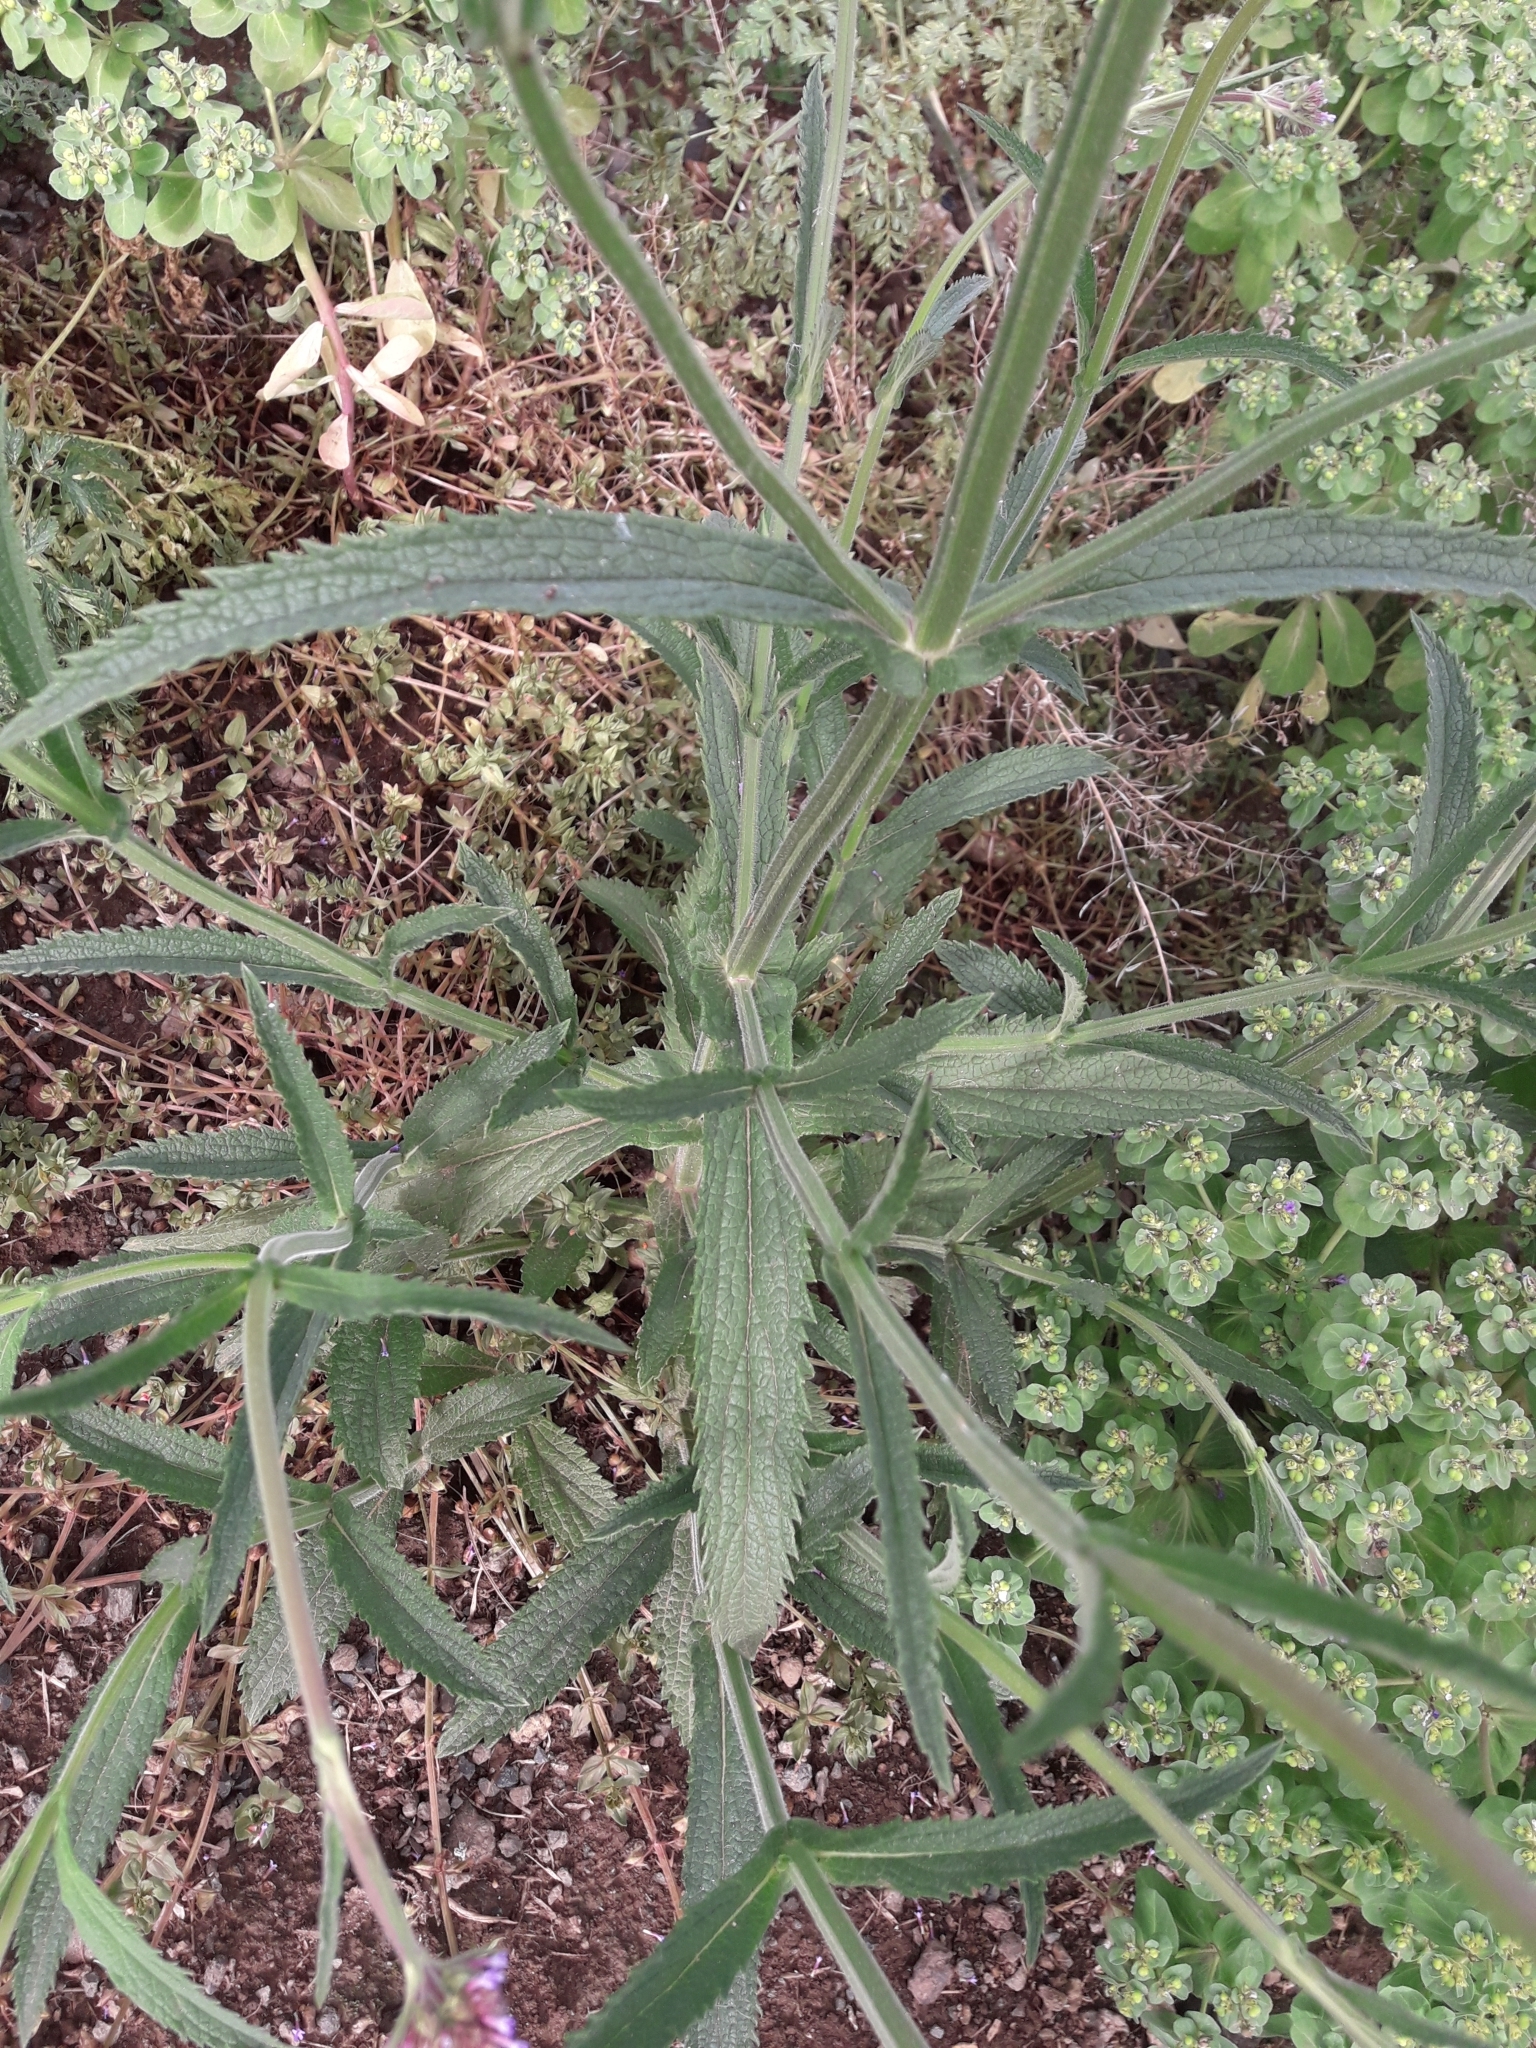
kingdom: Plantae
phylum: Tracheophyta
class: Magnoliopsida
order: Lamiales
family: Verbenaceae
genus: Verbena
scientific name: Verbena bonariensis
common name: Purpletop vervain
